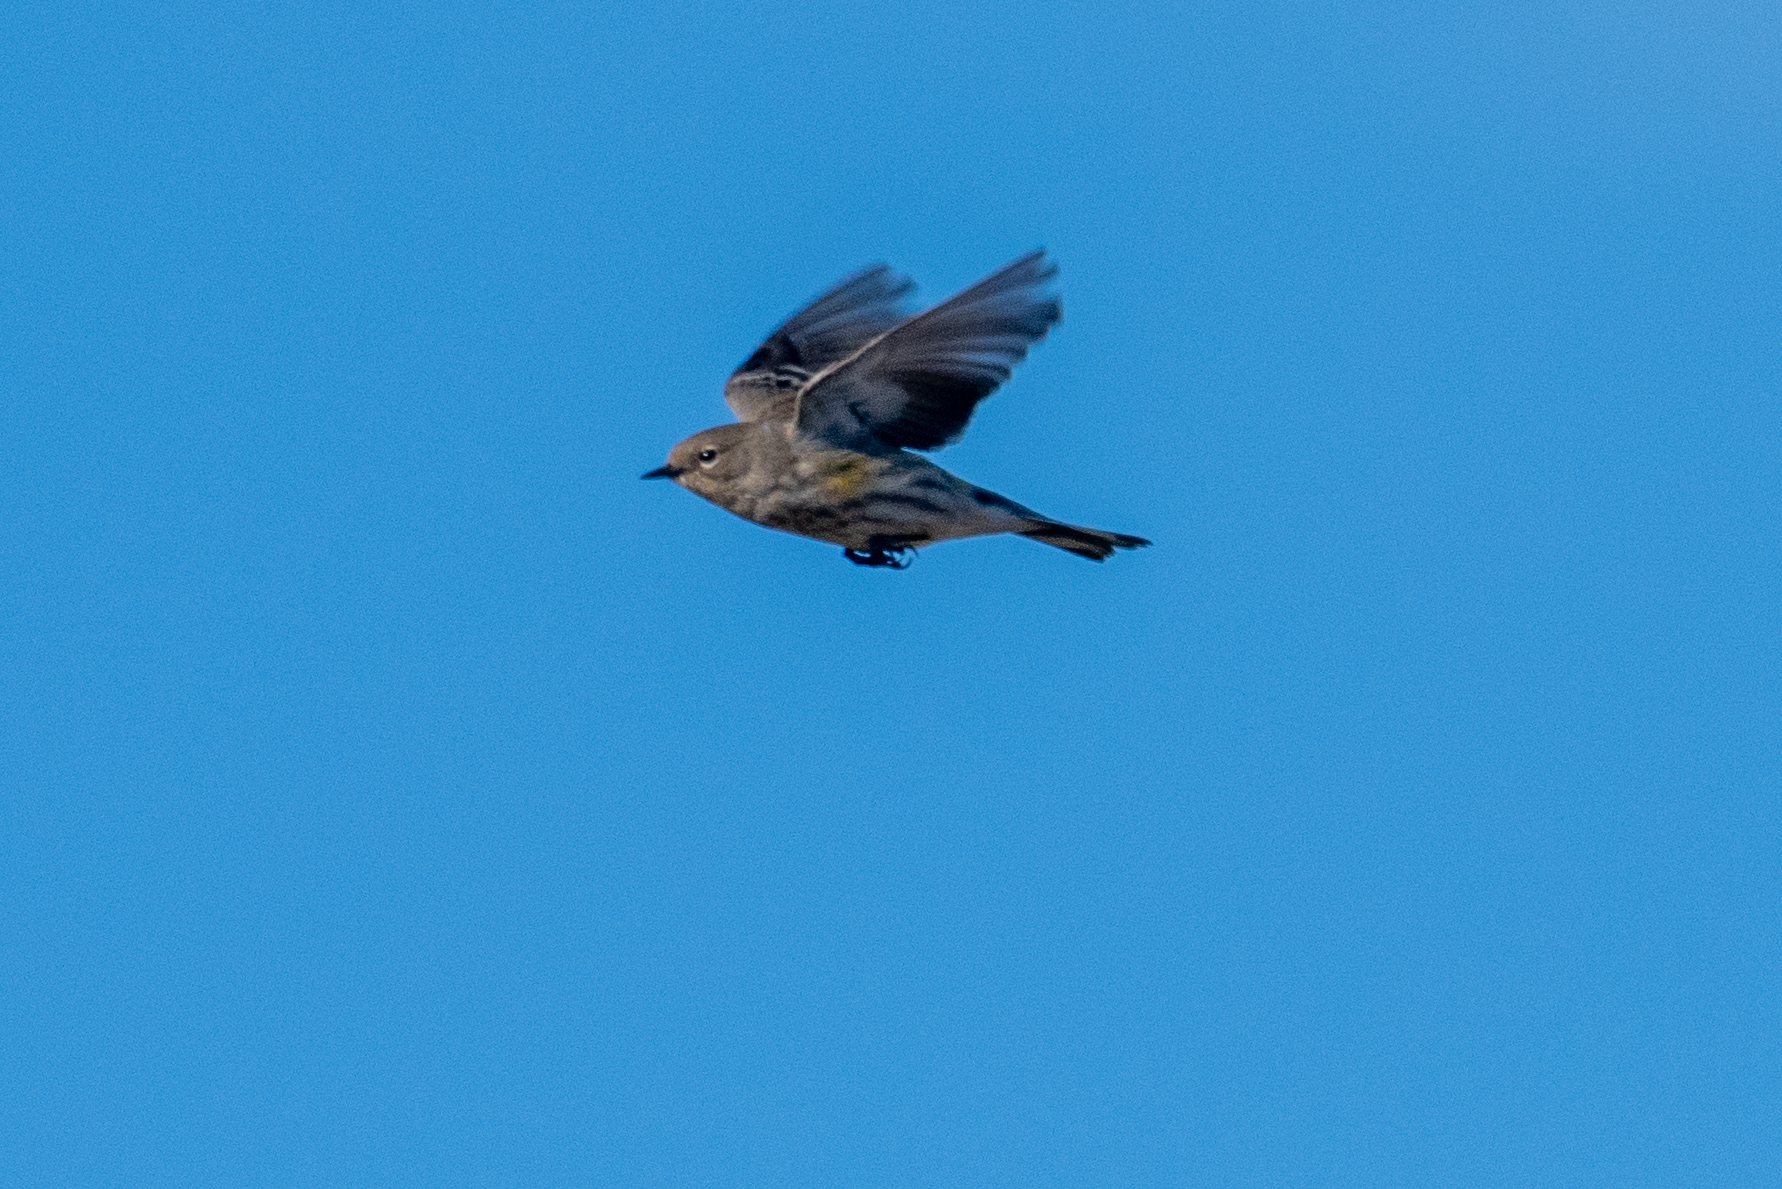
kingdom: Animalia
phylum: Chordata
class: Aves
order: Passeriformes
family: Parulidae
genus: Setophaga
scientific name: Setophaga coronata
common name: Myrtle warbler
